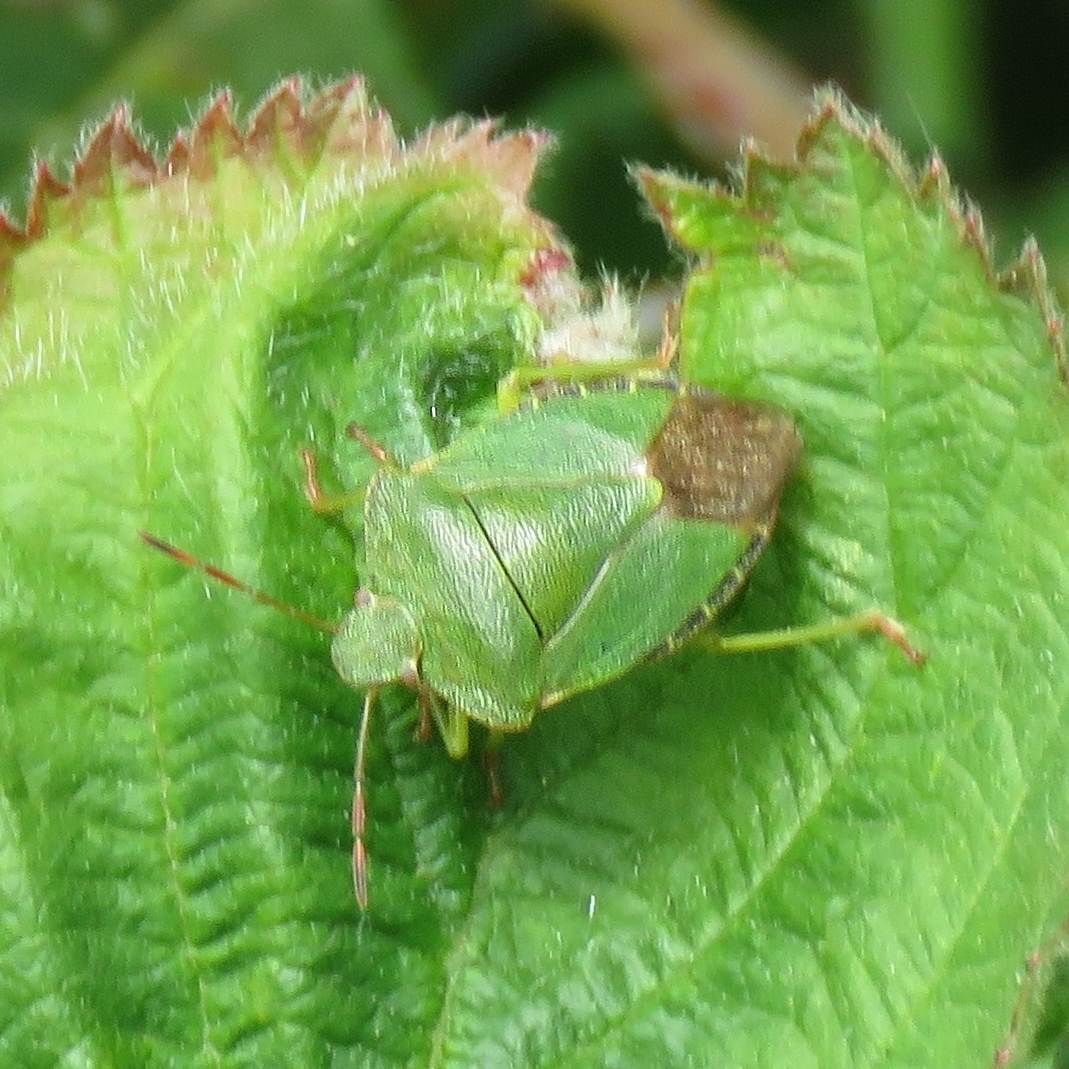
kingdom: Animalia
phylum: Arthropoda
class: Insecta
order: Hemiptera
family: Pentatomidae
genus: Palomena
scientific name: Palomena prasina
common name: Green shieldbug
